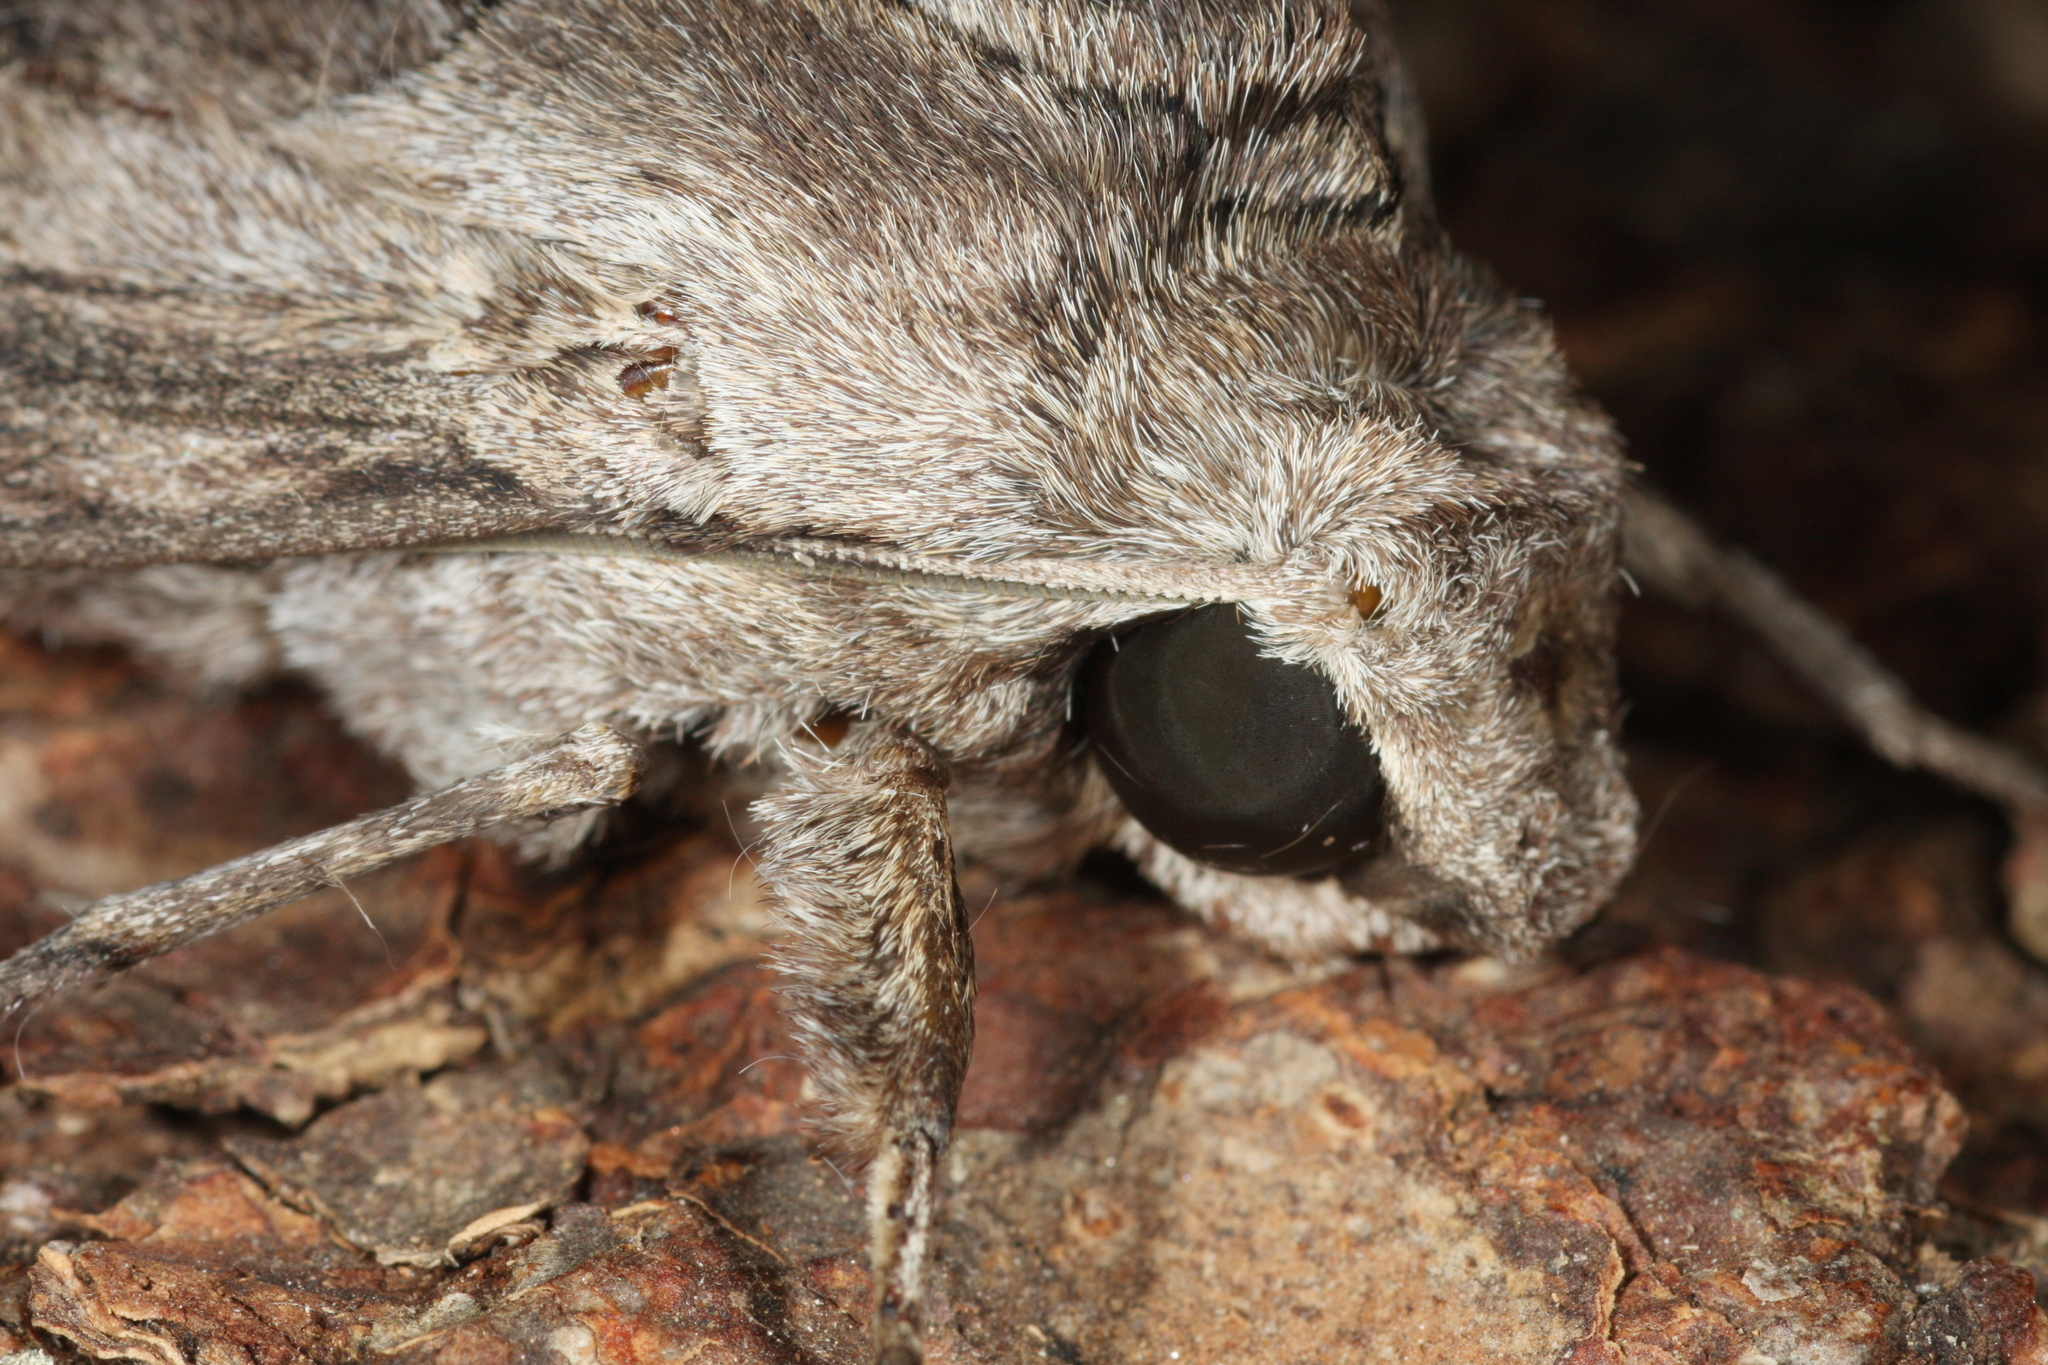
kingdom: Animalia
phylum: Arthropoda
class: Insecta
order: Lepidoptera
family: Sphingidae
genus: Agrius
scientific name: Agrius convolvuli
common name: Convolvulus hawkmoth
